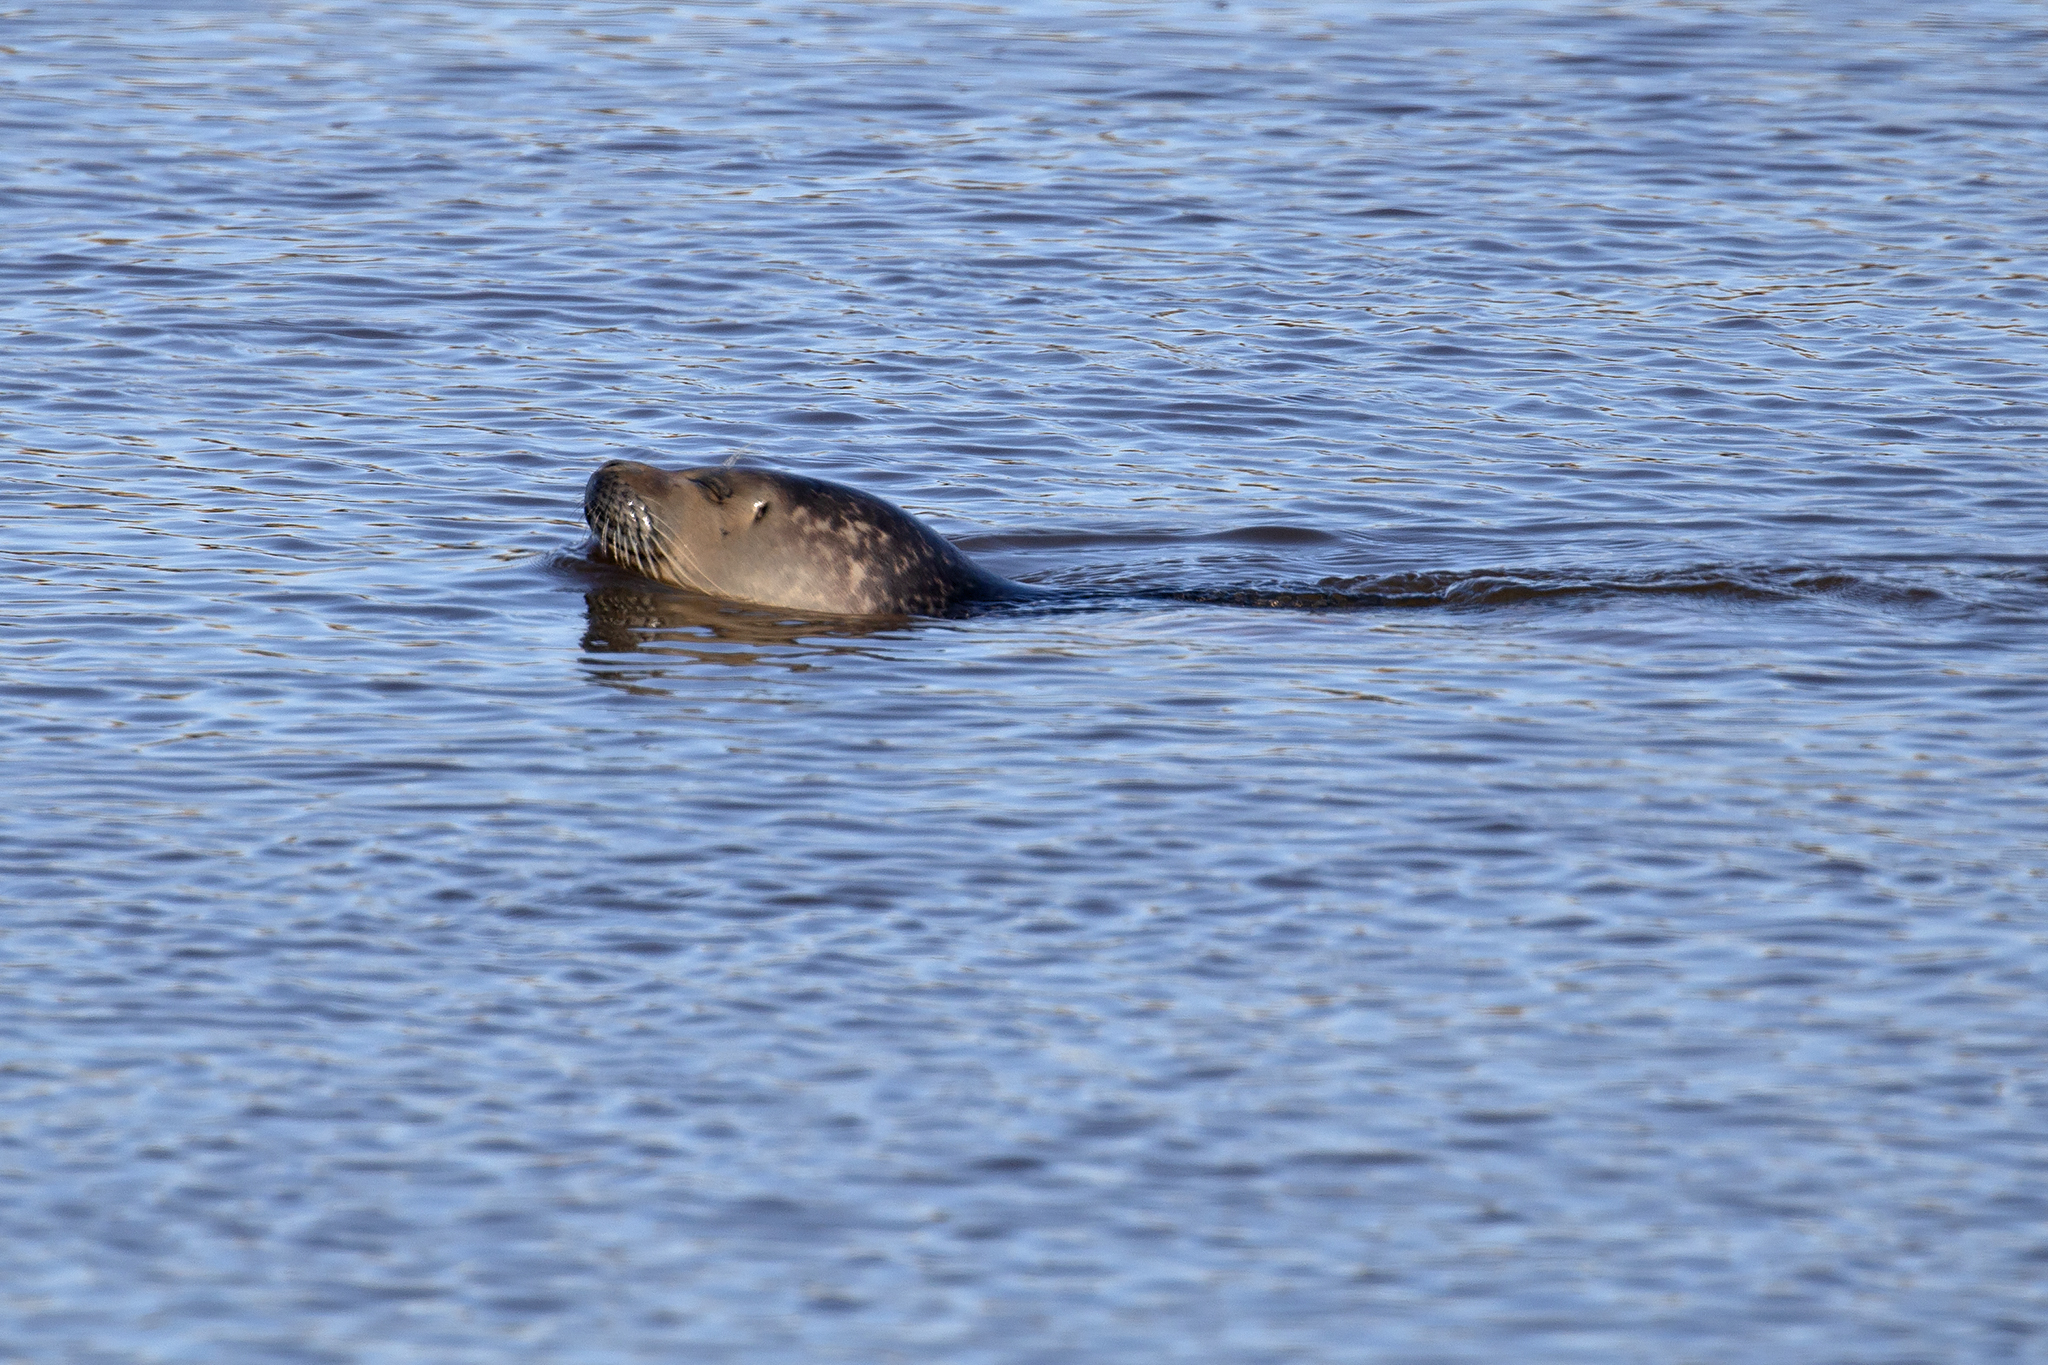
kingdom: Animalia
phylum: Chordata
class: Mammalia
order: Carnivora
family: Phocidae
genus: Phoca
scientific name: Phoca vitulina
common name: Harbor seal
